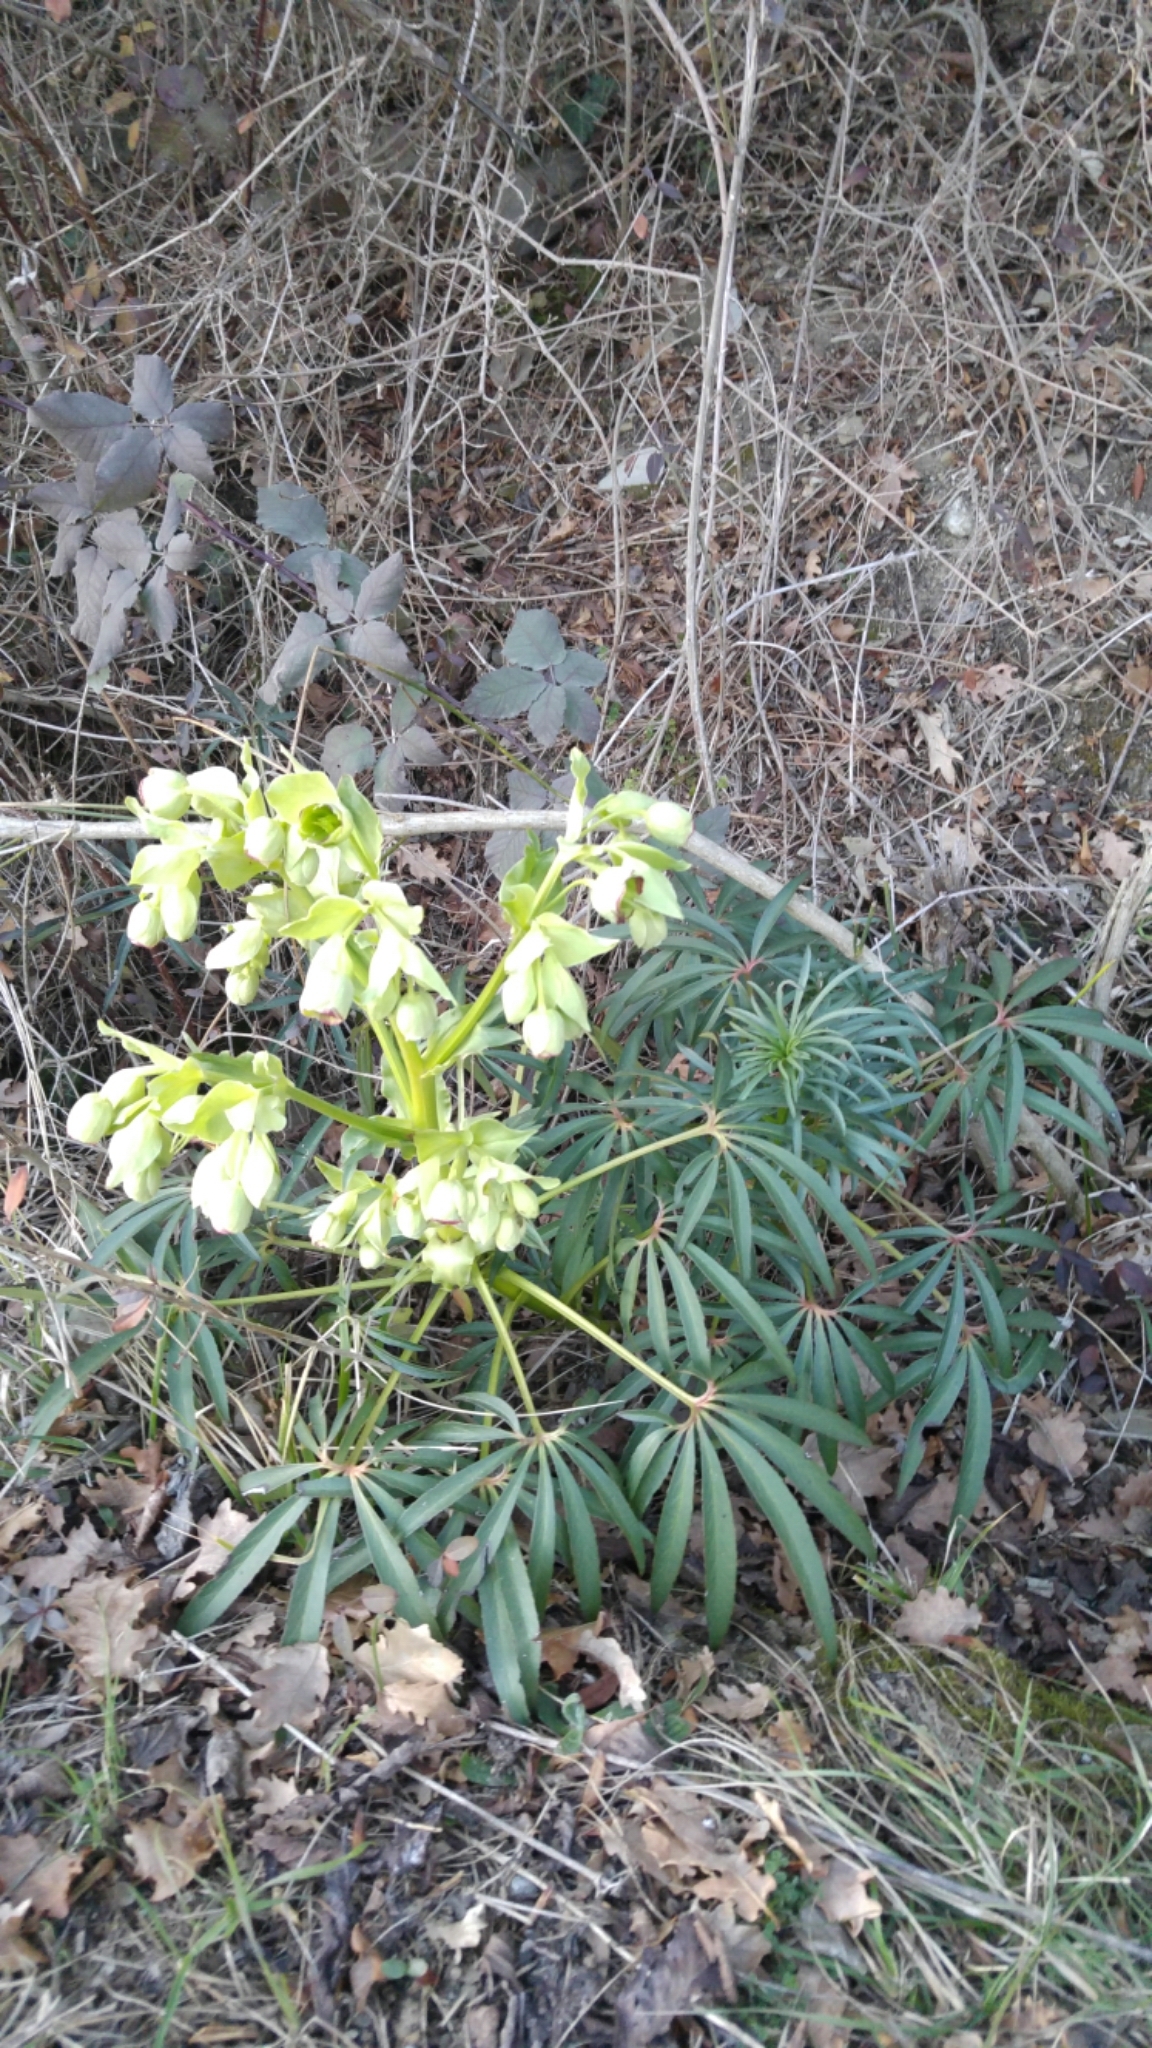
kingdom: Plantae
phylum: Tracheophyta
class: Magnoliopsida
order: Ranunculales
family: Ranunculaceae
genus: Helleborus
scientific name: Helleborus foetidus
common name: Stinking hellebore
